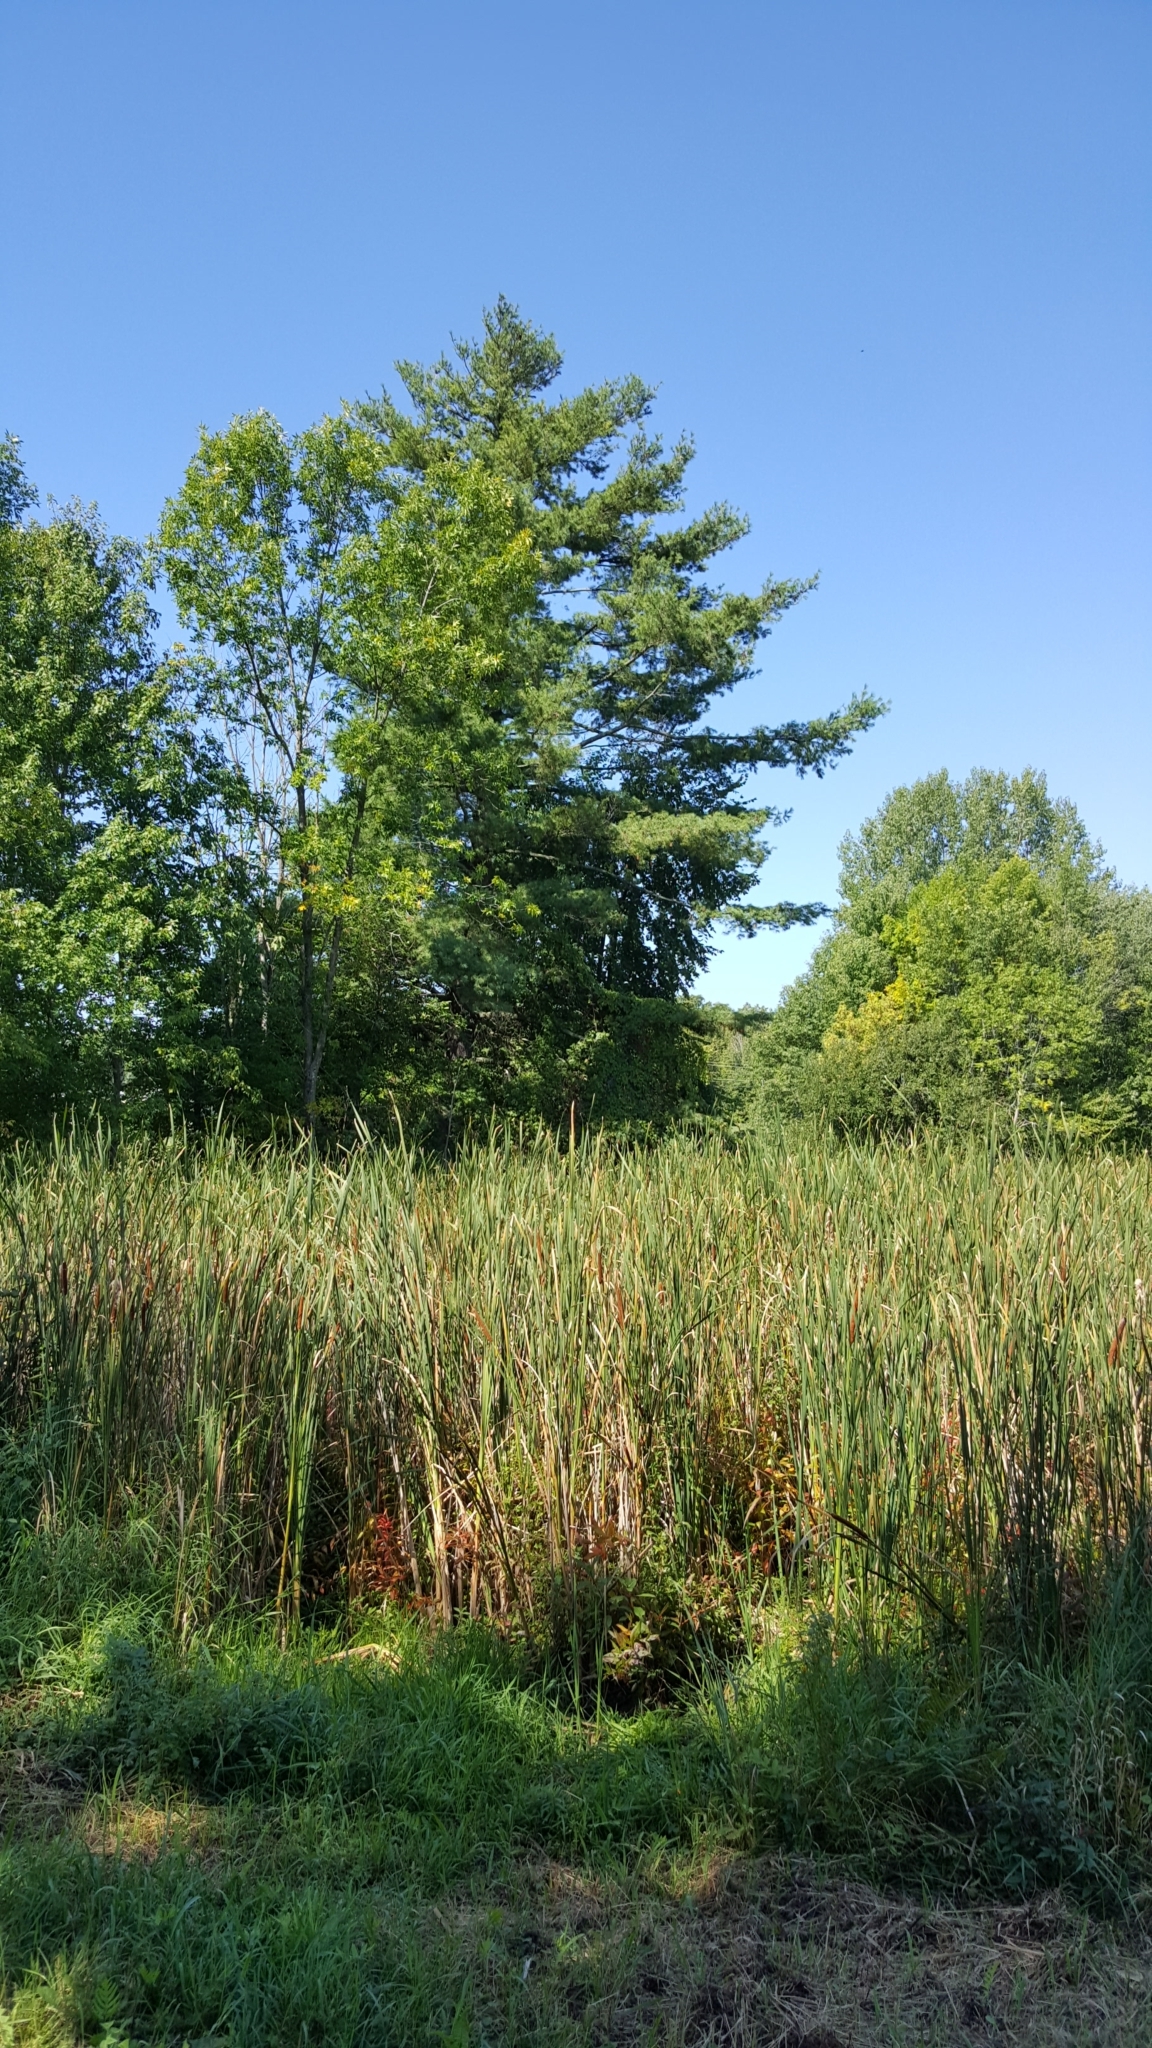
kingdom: Plantae
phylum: Tracheophyta
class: Pinopsida
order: Pinales
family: Pinaceae
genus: Pinus
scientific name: Pinus strobus
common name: Weymouth pine
